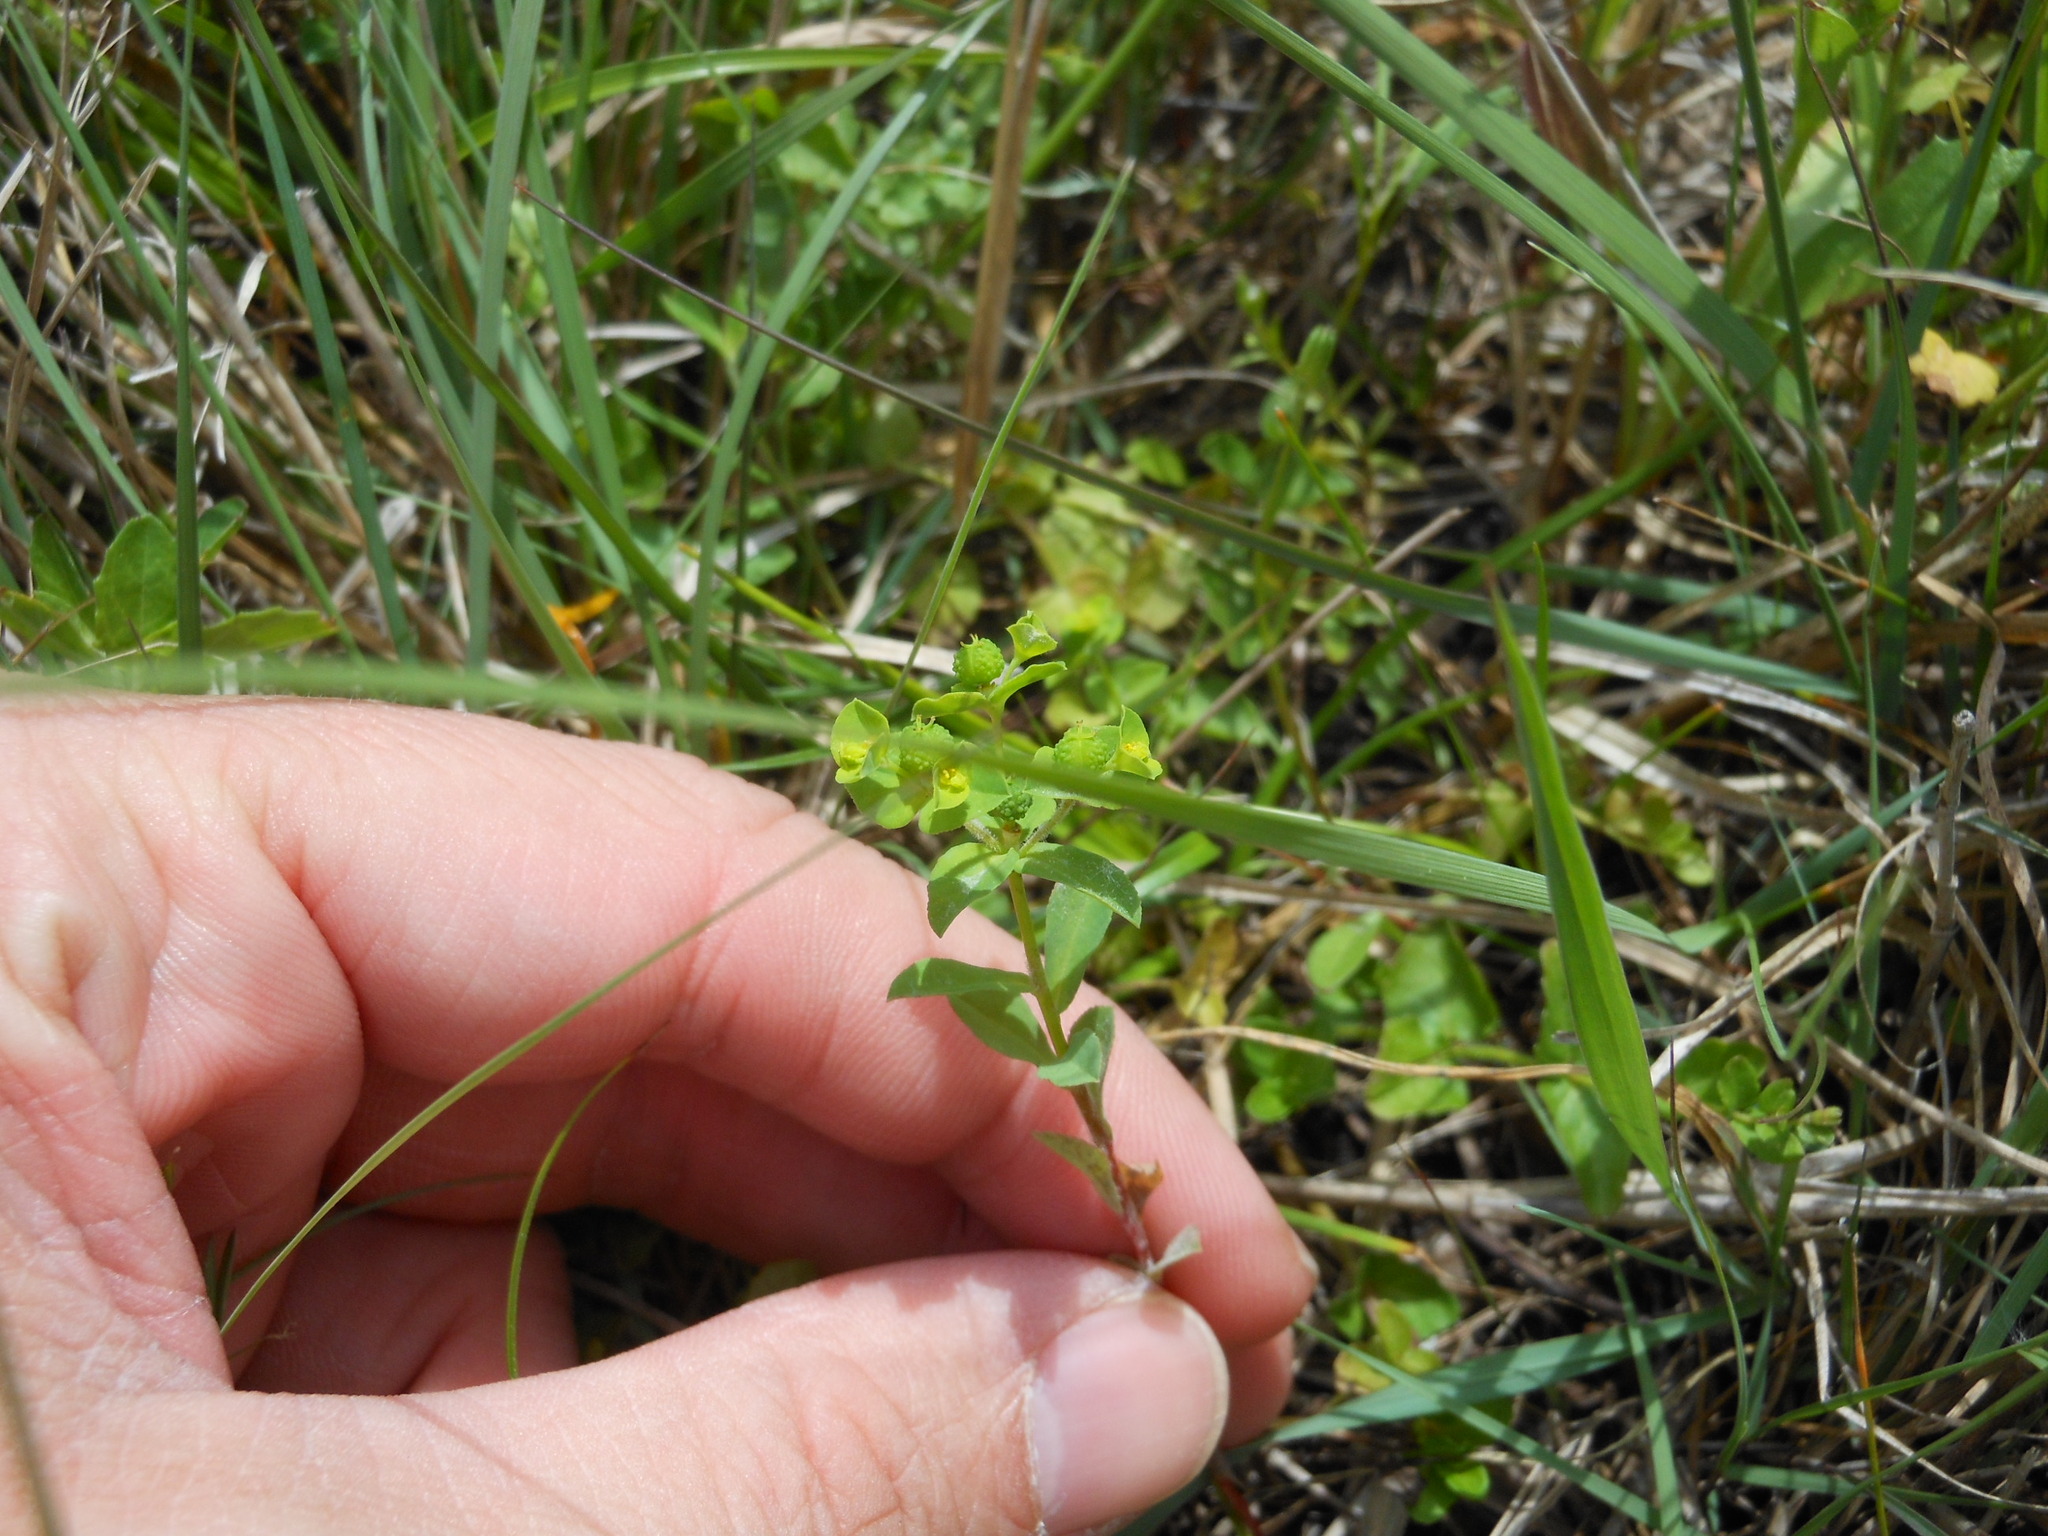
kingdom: Plantae
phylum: Tracheophyta
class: Magnoliopsida
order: Malpighiales
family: Euphorbiaceae
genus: Euphorbia
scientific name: Euphorbia spathulata
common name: Blunt spurge
